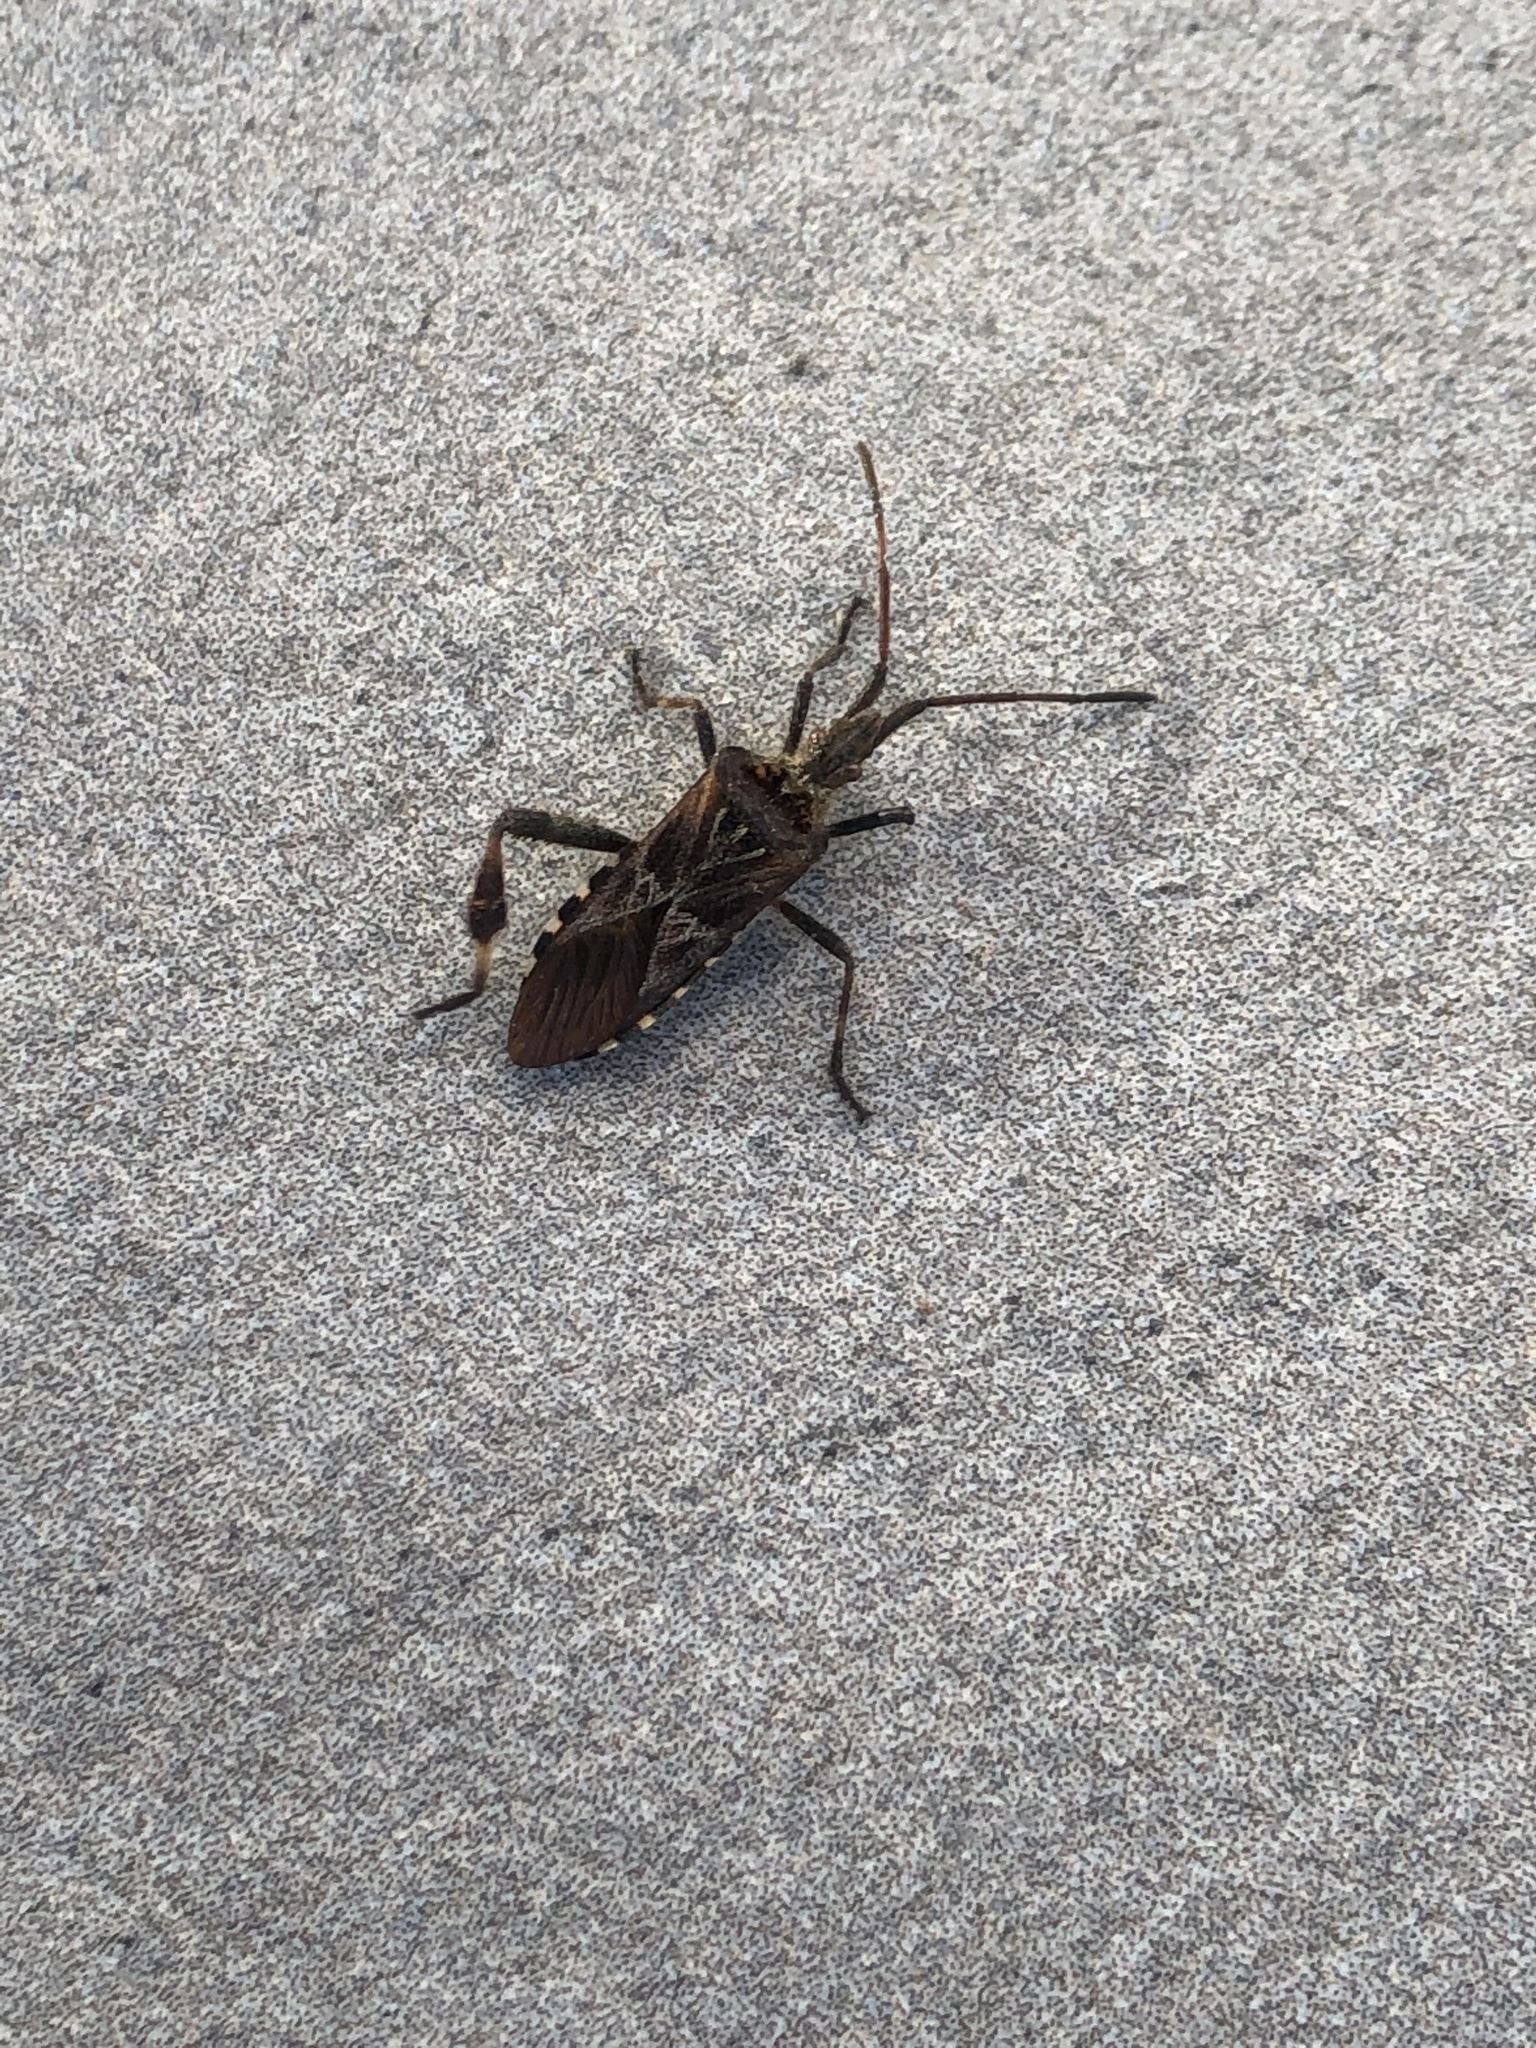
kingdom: Animalia
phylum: Arthropoda
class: Insecta
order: Hemiptera
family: Coreidae
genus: Leptoglossus
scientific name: Leptoglossus occidentalis
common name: Western conifer-seed bug
